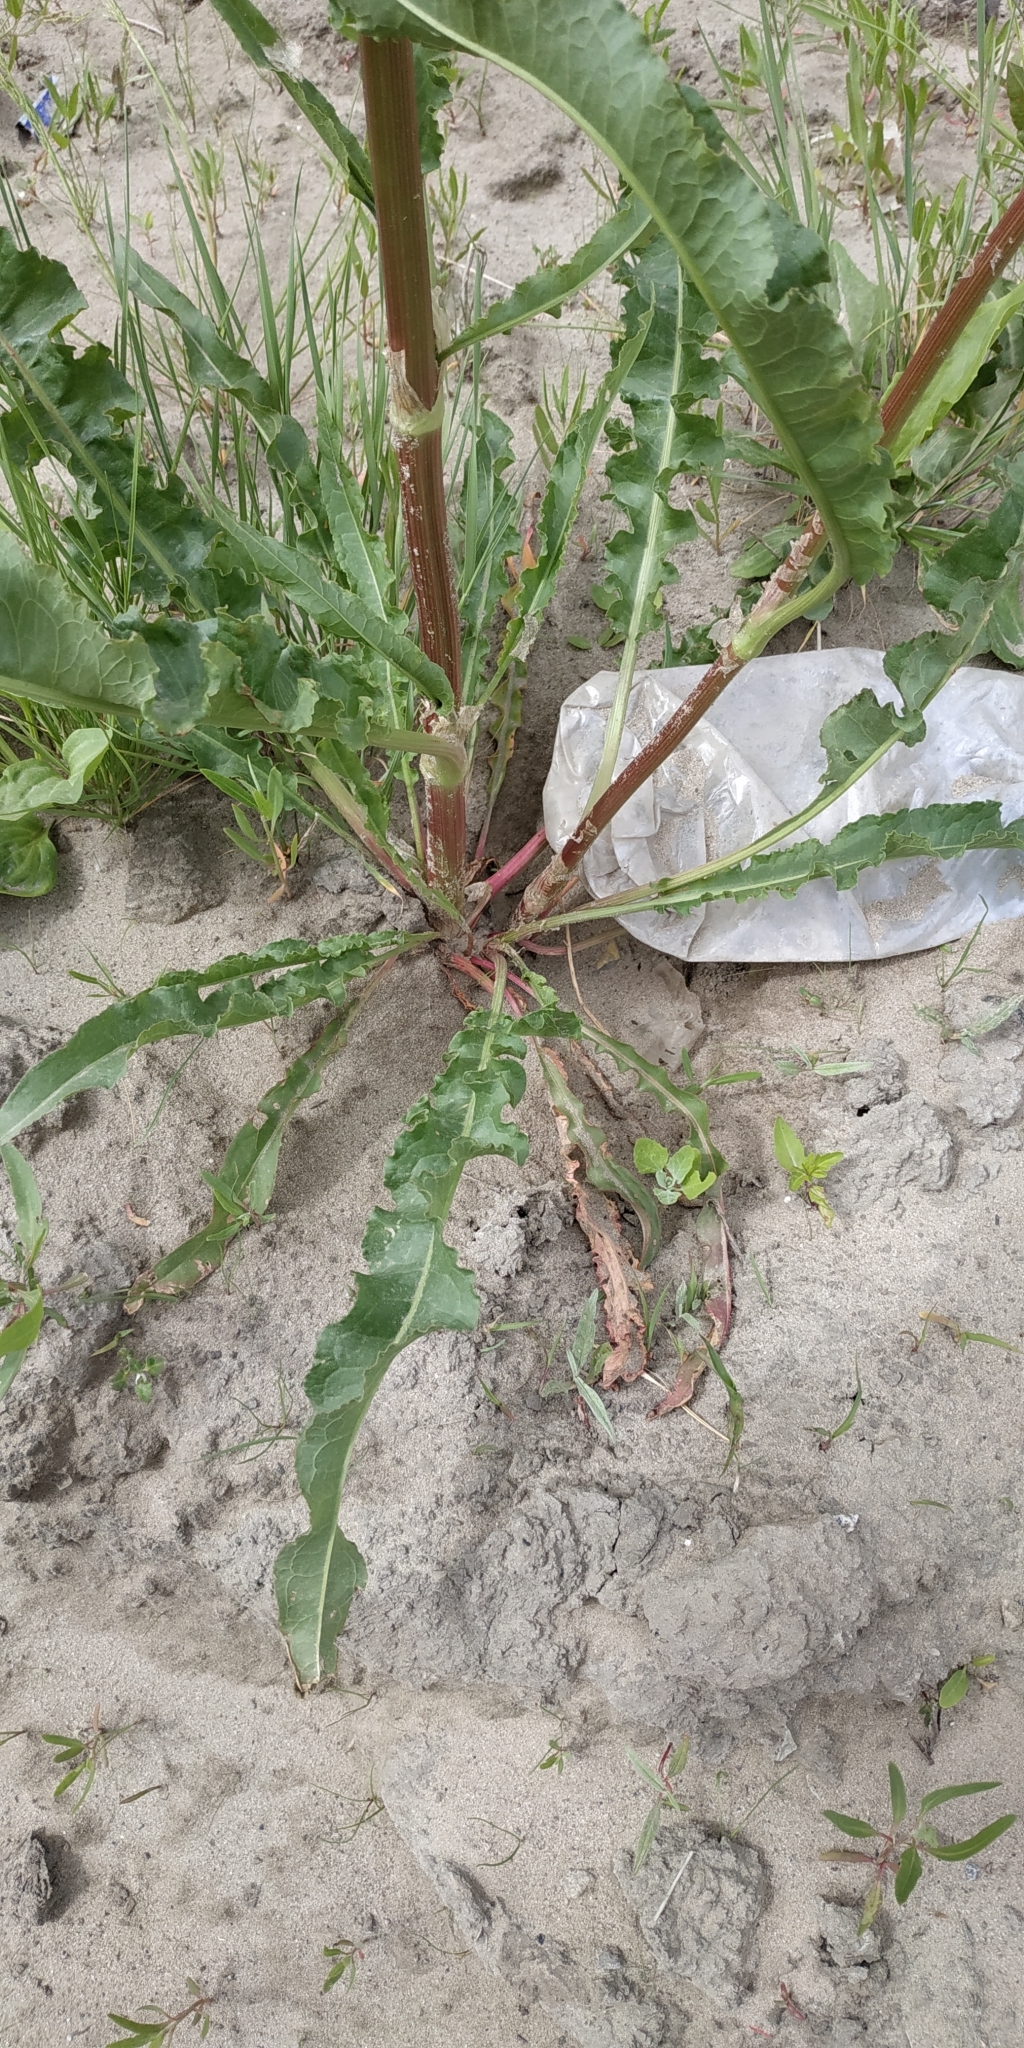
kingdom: Plantae
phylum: Tracheophyta
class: Magnoliopsida
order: Caryophyllales
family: Polygonaceae
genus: Rumex
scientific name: Rumex pseudonatronatus
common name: Field dock
